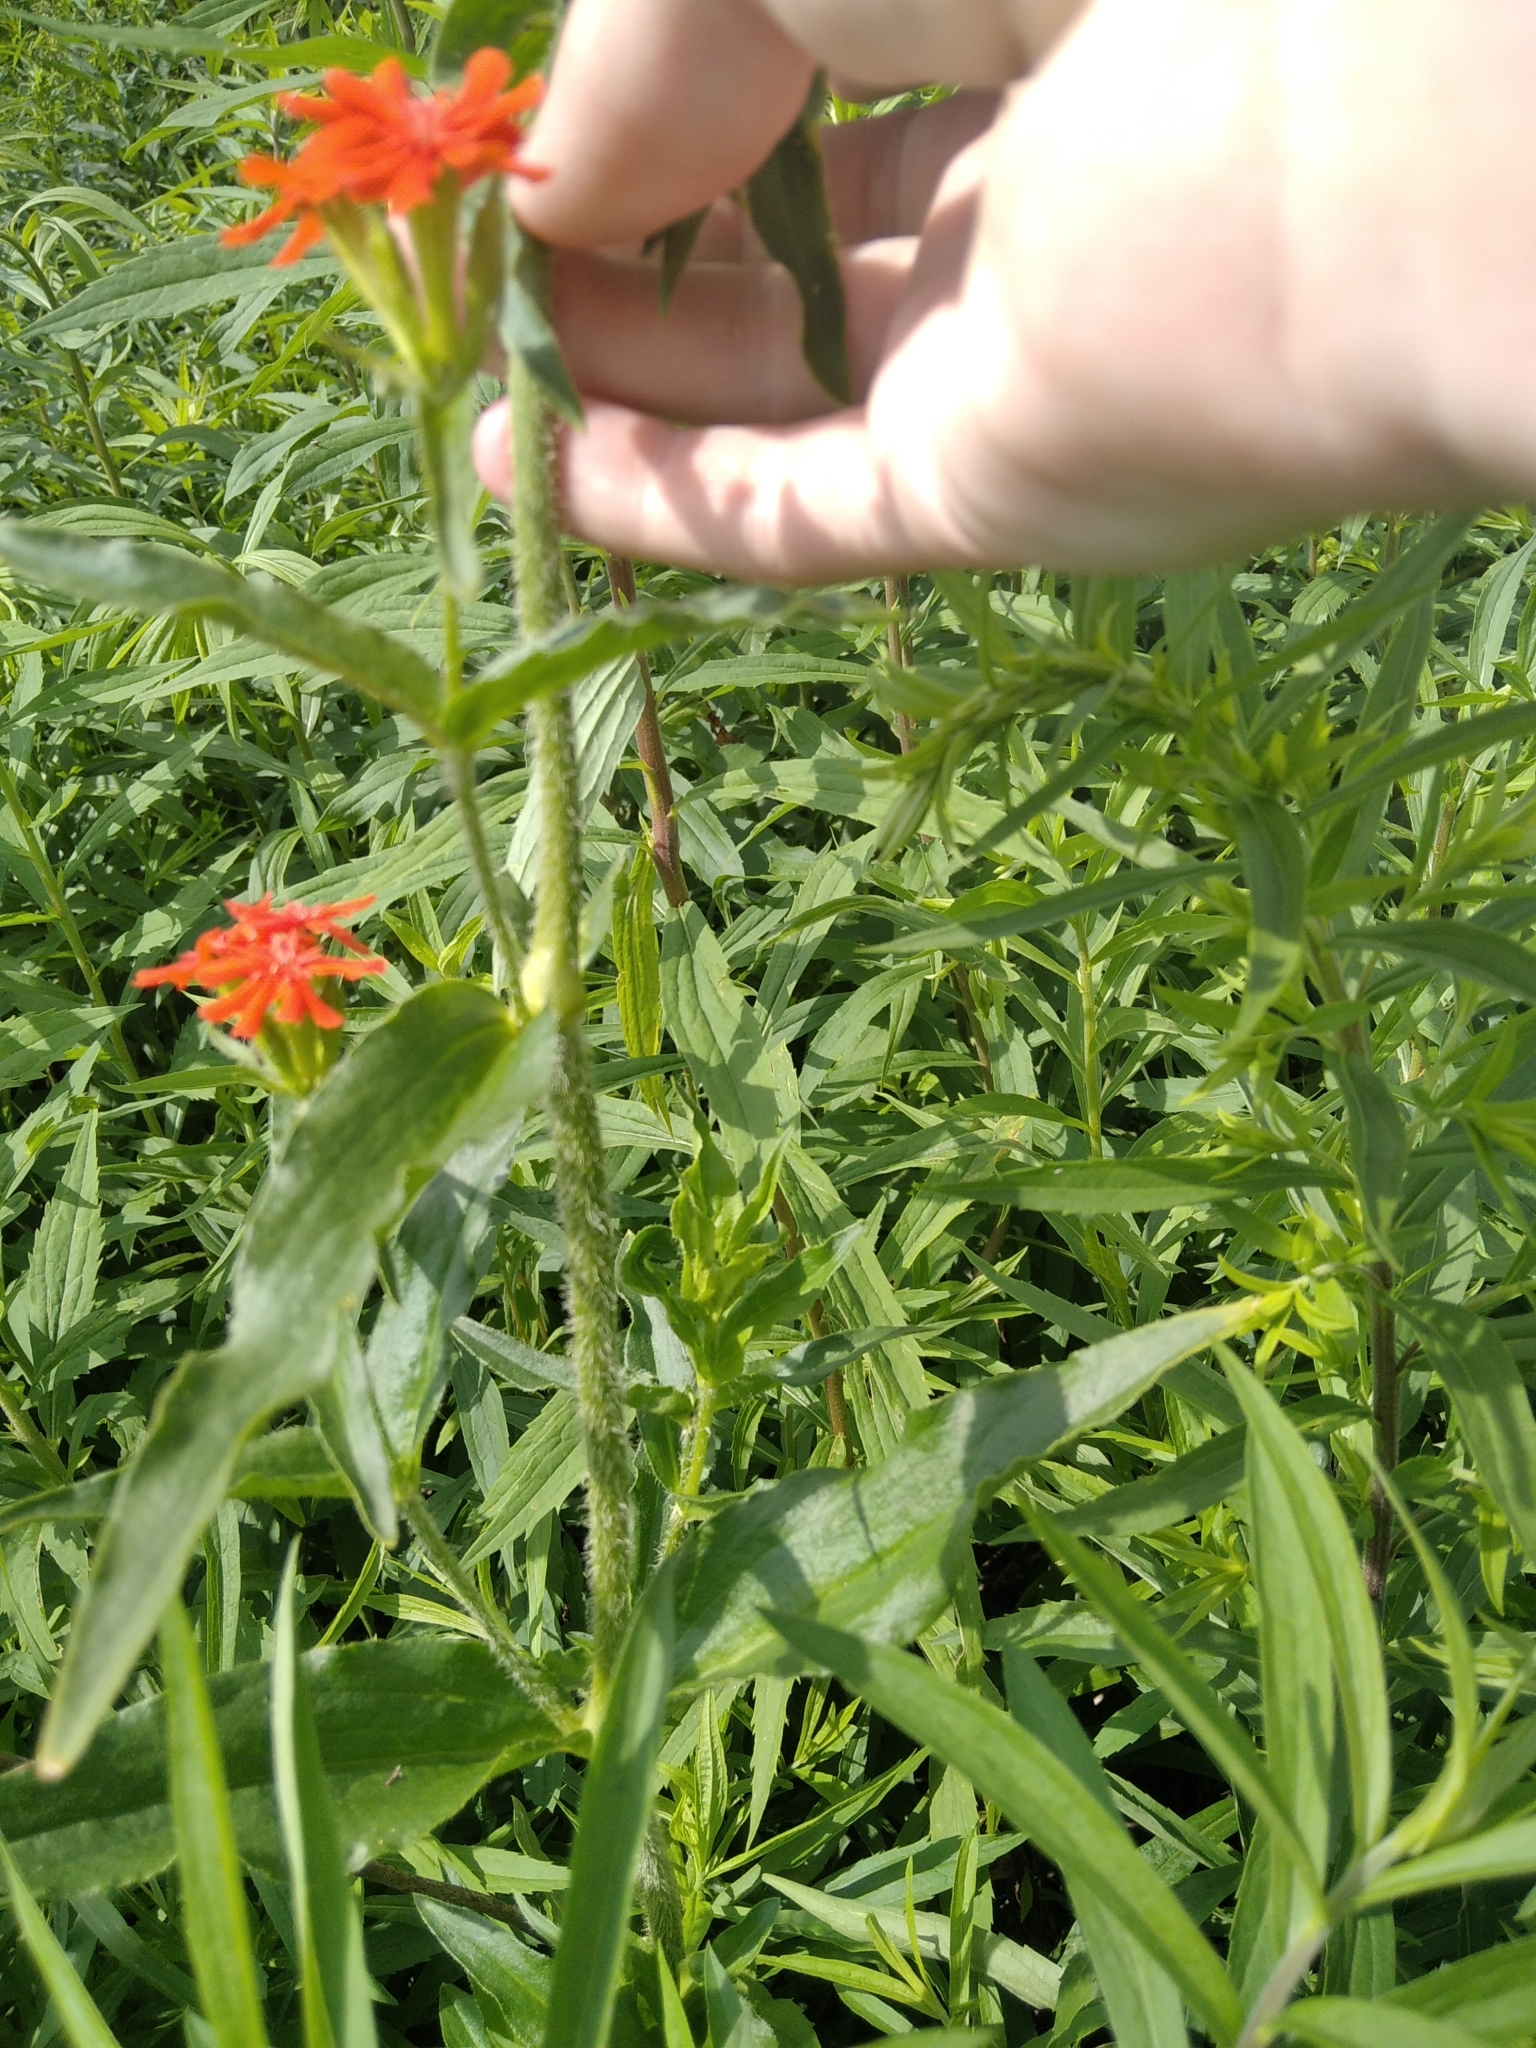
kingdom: Plantae
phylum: Tracheophyta
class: Magnoliopsida
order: Caryophyllales
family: Caryophyllaceae
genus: Silene
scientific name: Silene chalcedonica
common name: Maltese-cross
